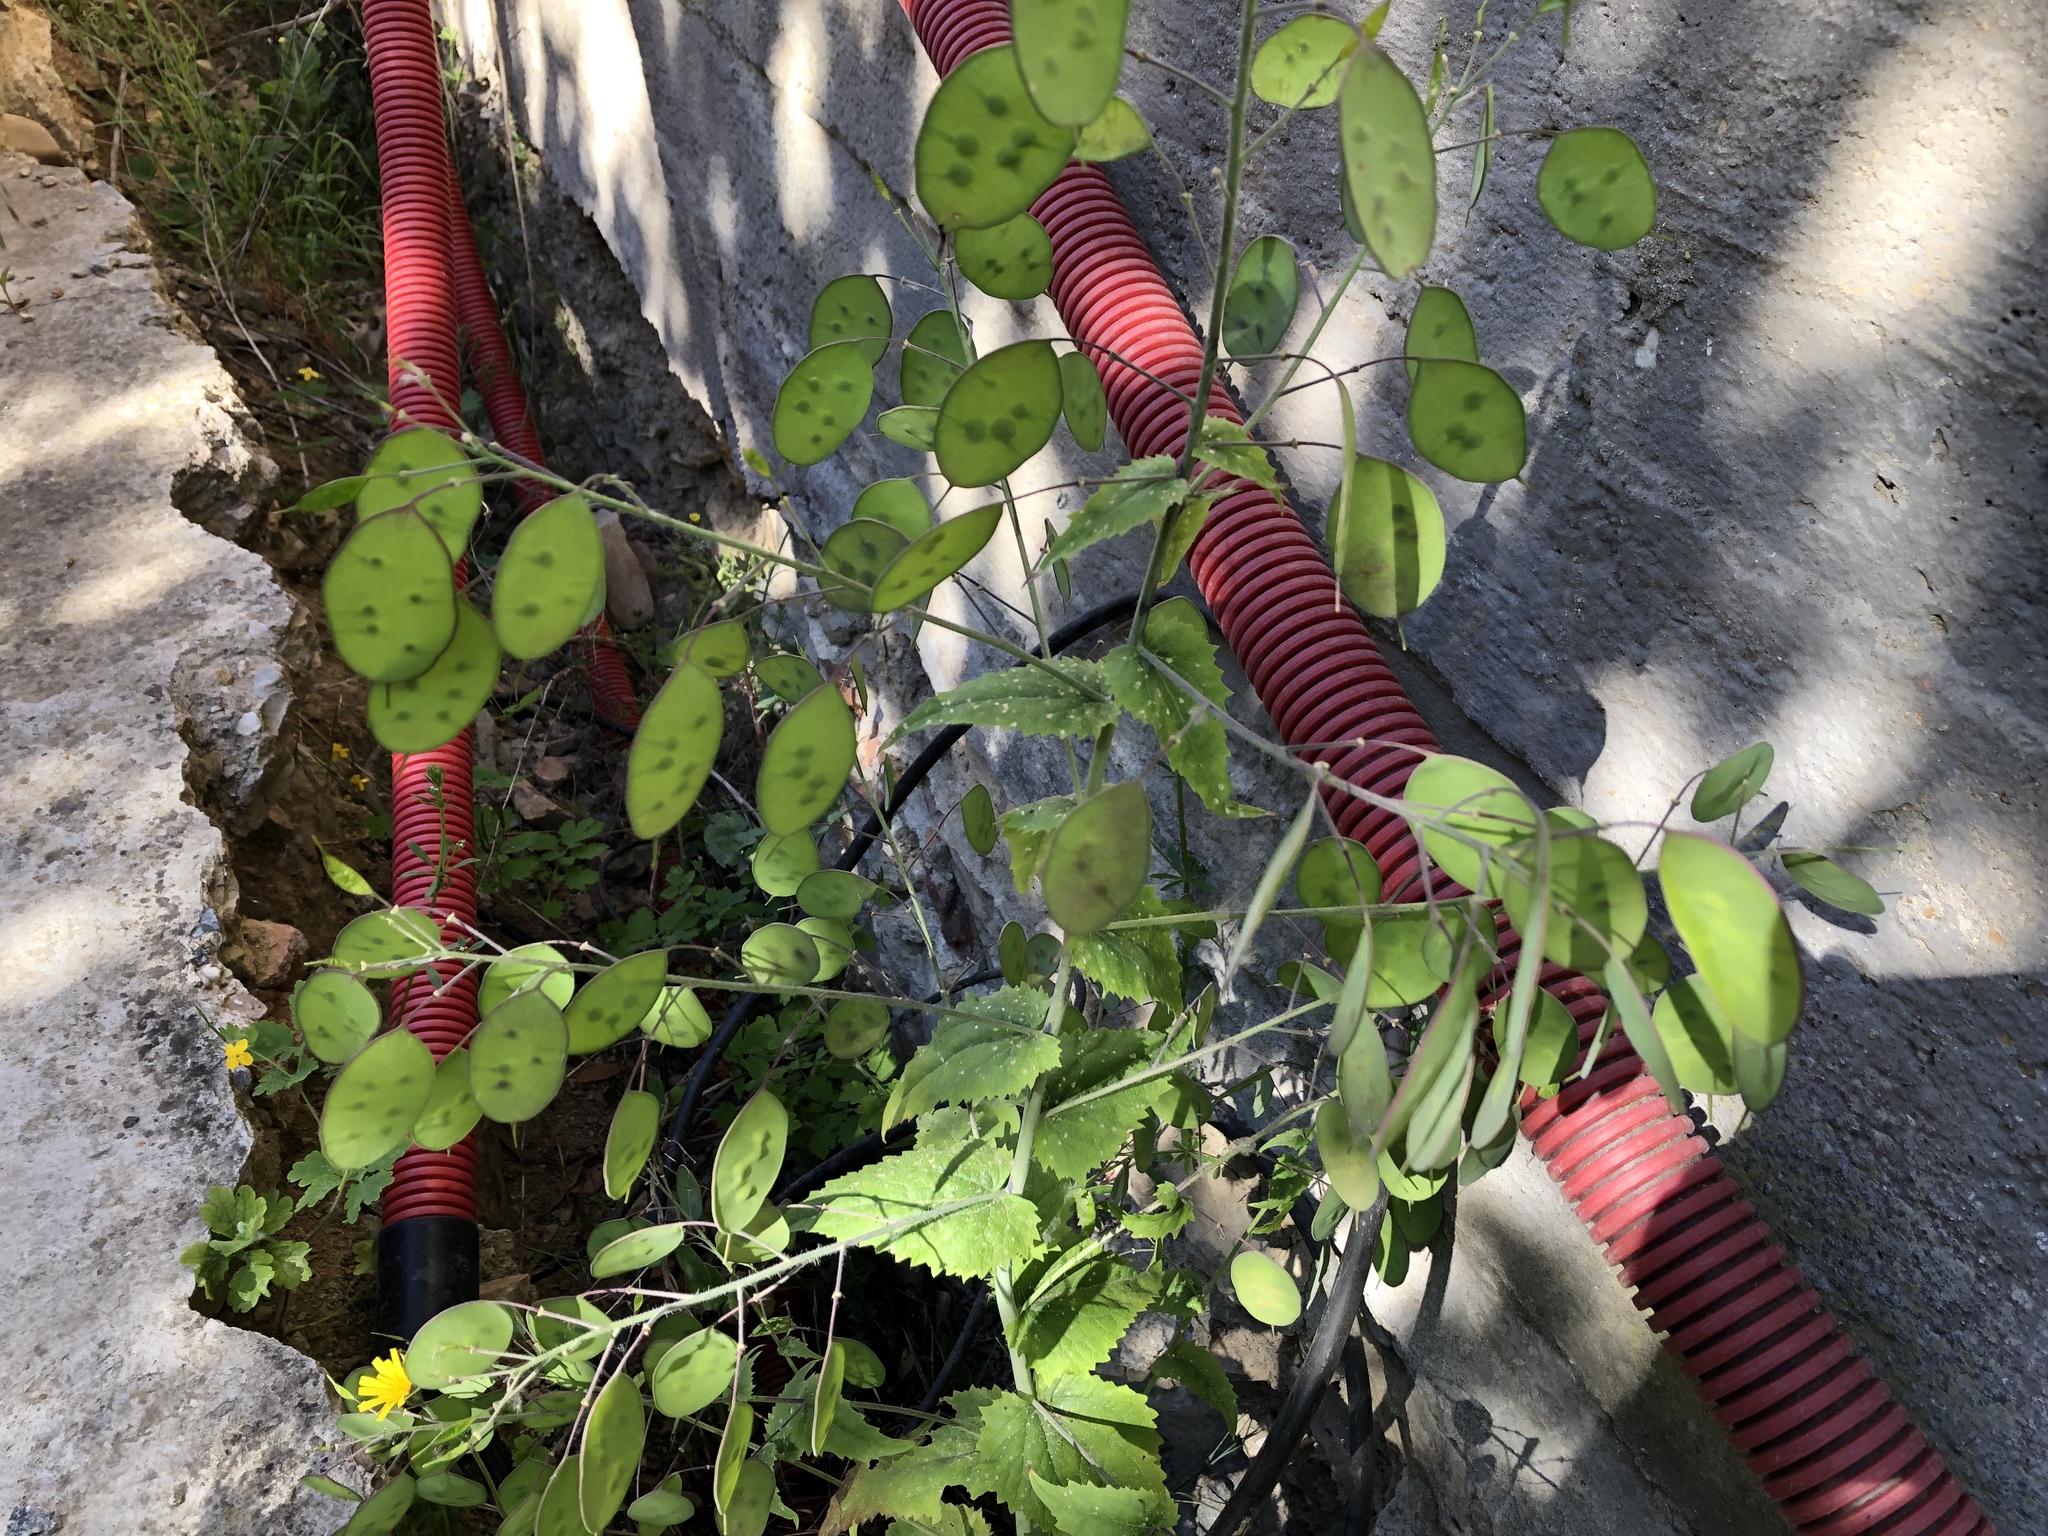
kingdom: Plantae
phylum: Tracheophyta
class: Magnoliopsida
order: Brassicales
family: Brassicaceae
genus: Lunaria
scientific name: Lunaria annua
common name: Honesty
